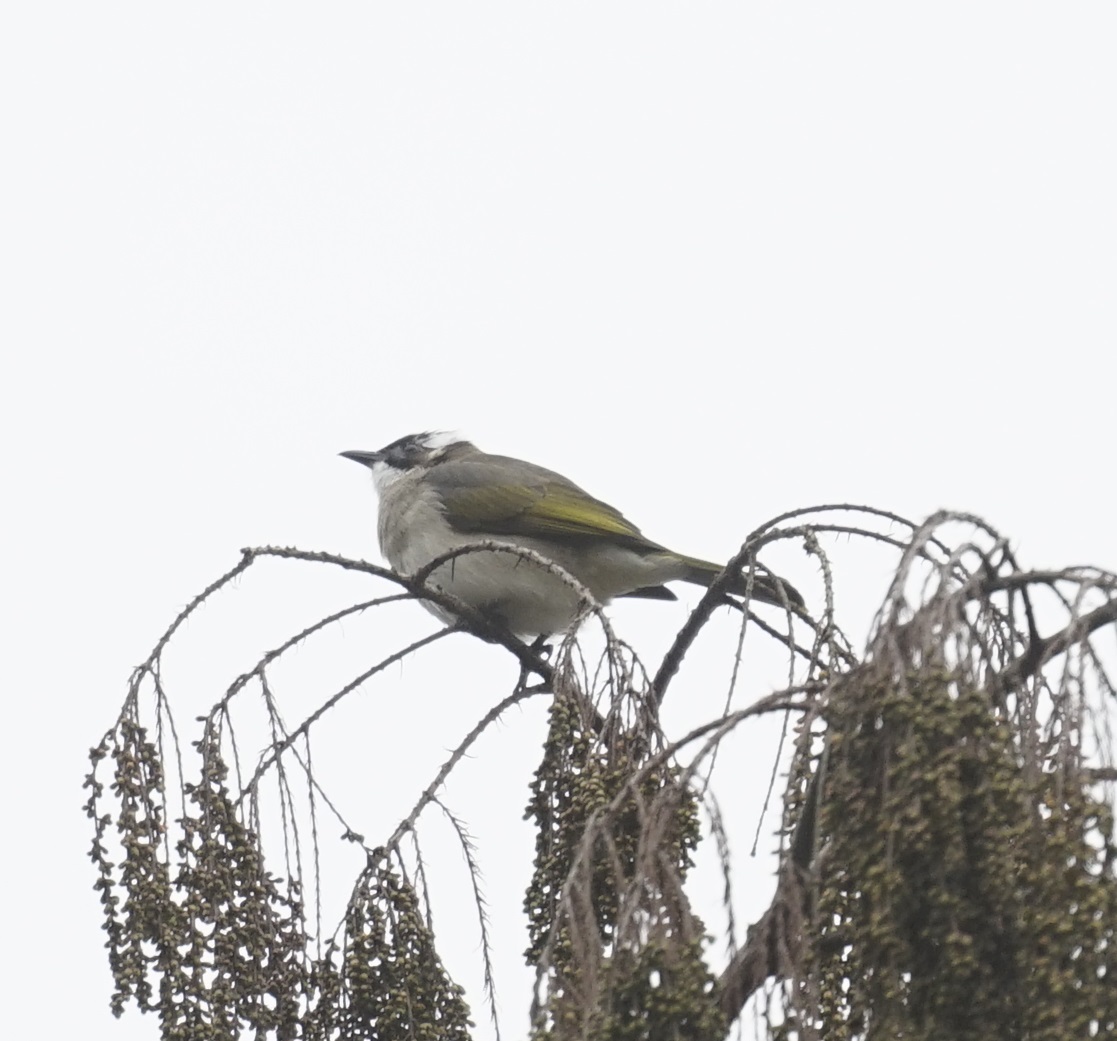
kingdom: Animalia
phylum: Chordata
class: Aves
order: Passeriformes
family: Pycnonotidae
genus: Pycnonotus
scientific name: Pycnonotus sinensis
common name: Light-vented bulbul
